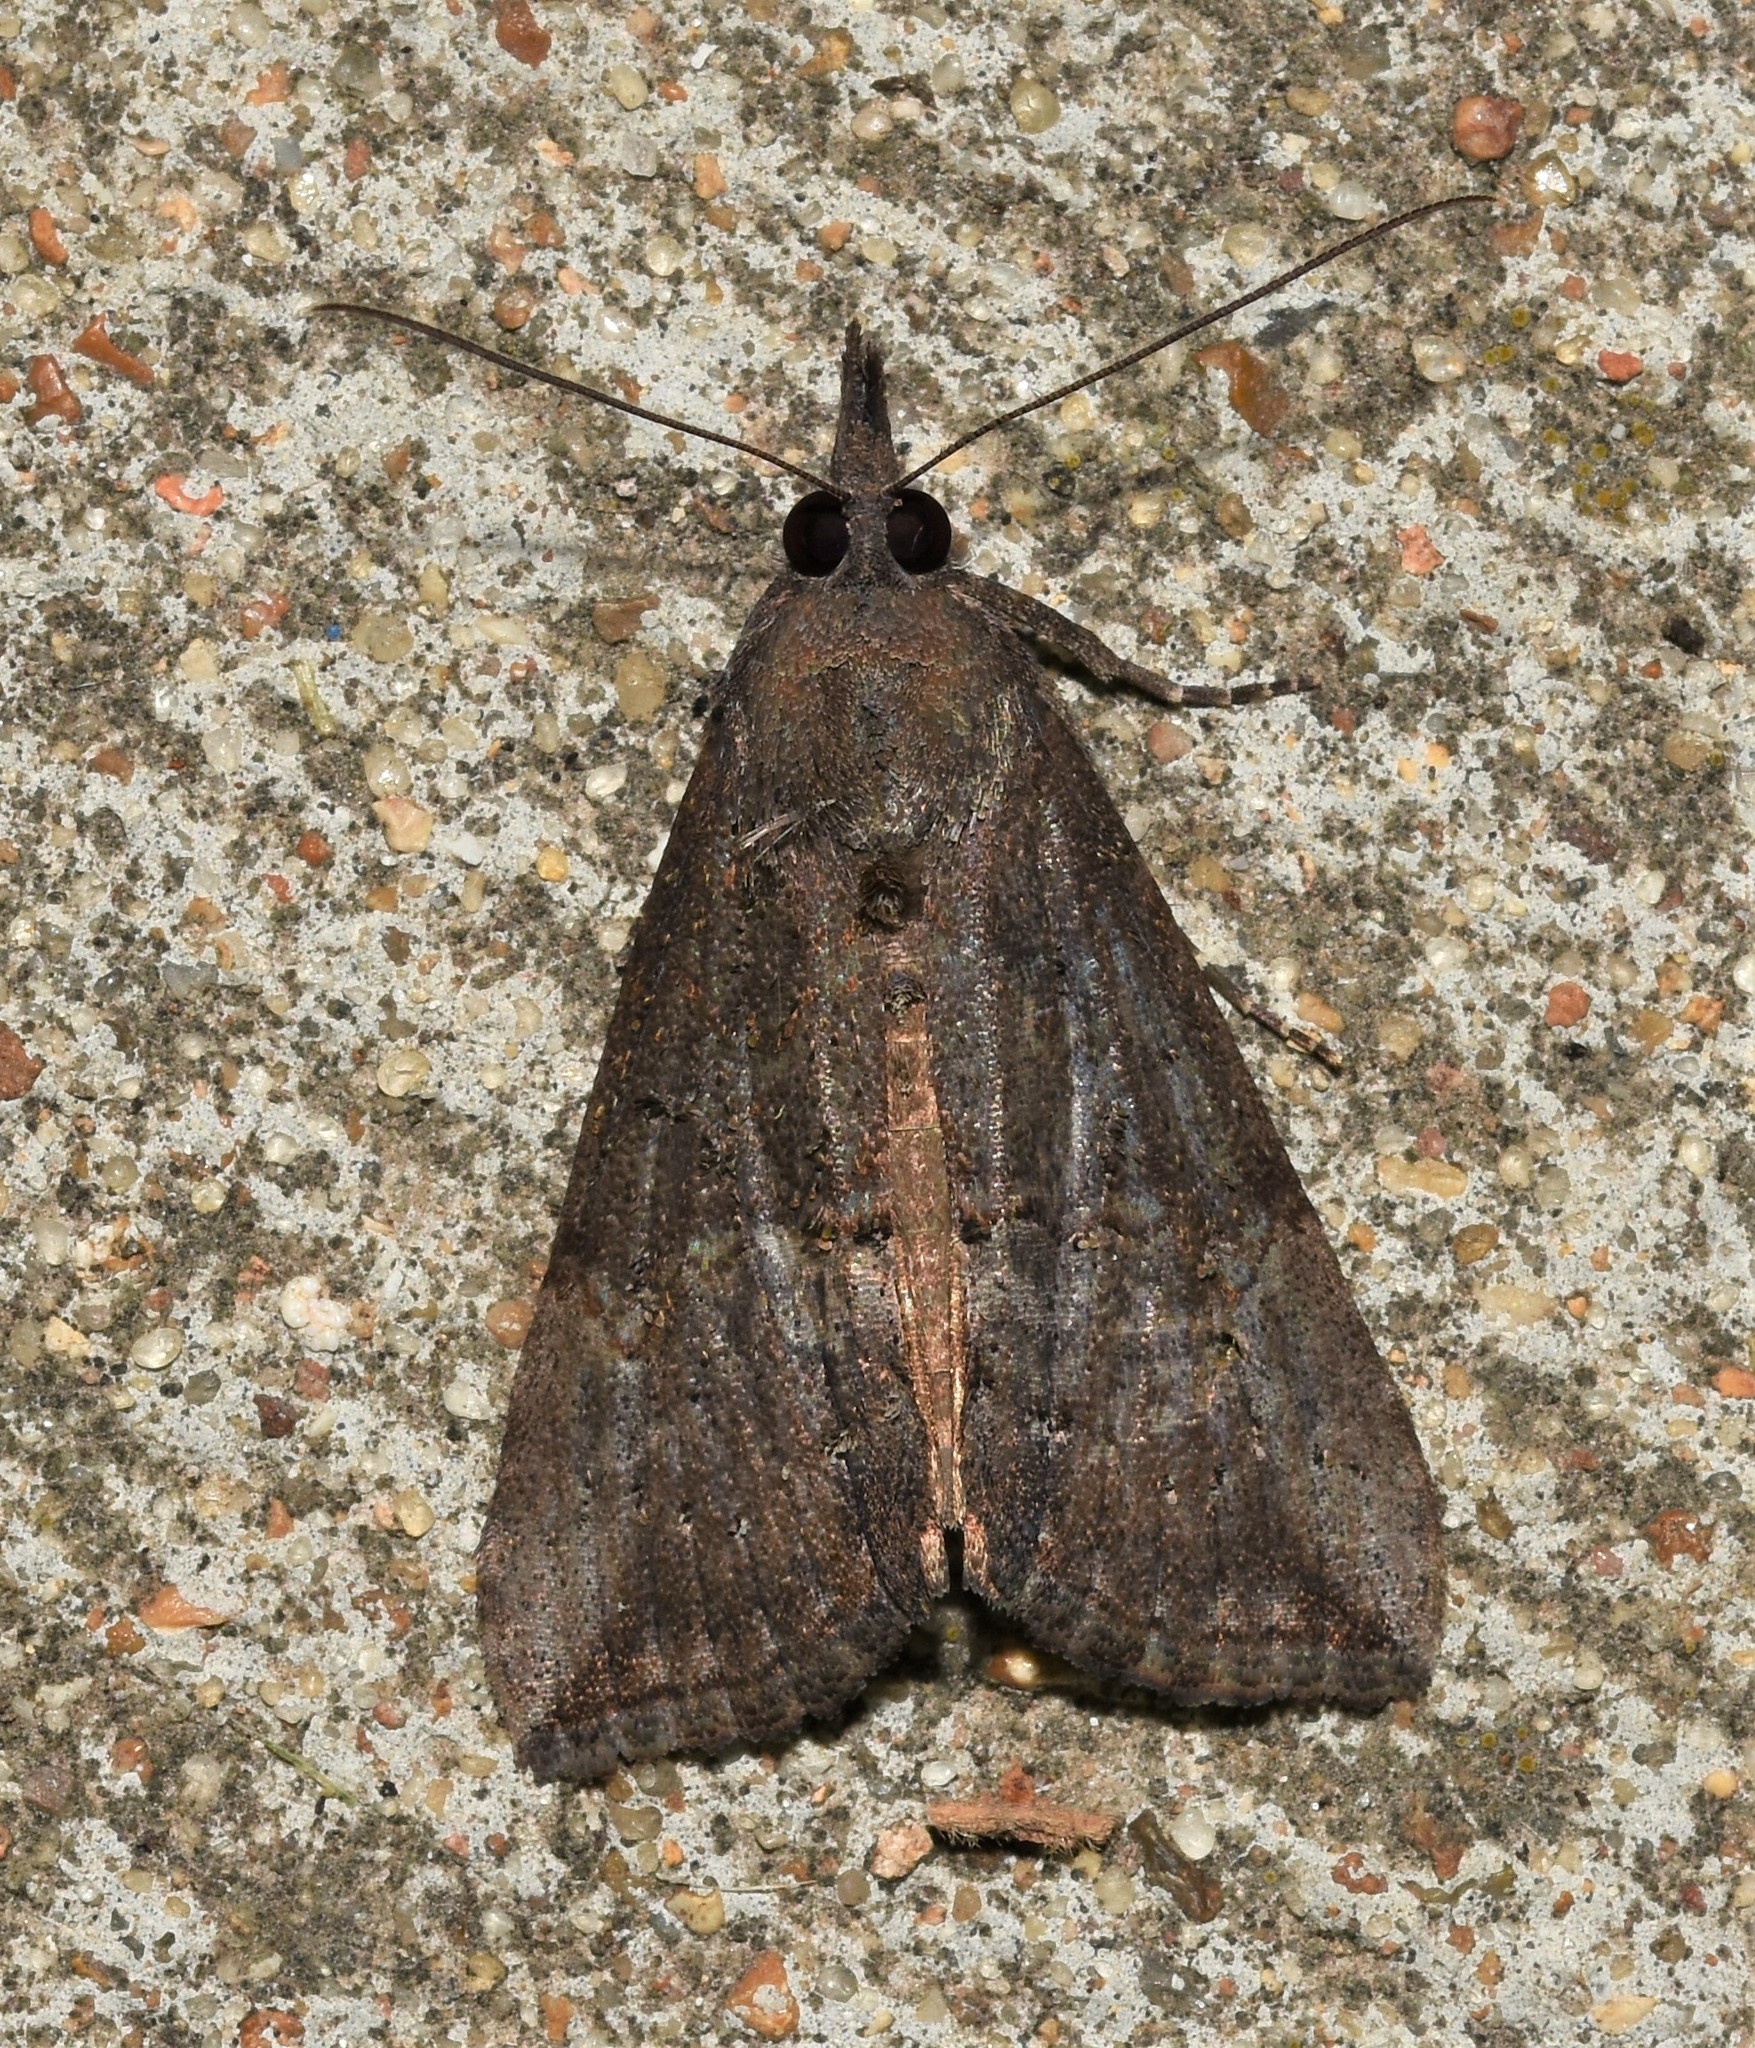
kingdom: Animalia
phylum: Arthropoda
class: Insecta
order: Lepidoptera
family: Erebidae
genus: Hypena
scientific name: Hypena scabra
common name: Green cloverworm
